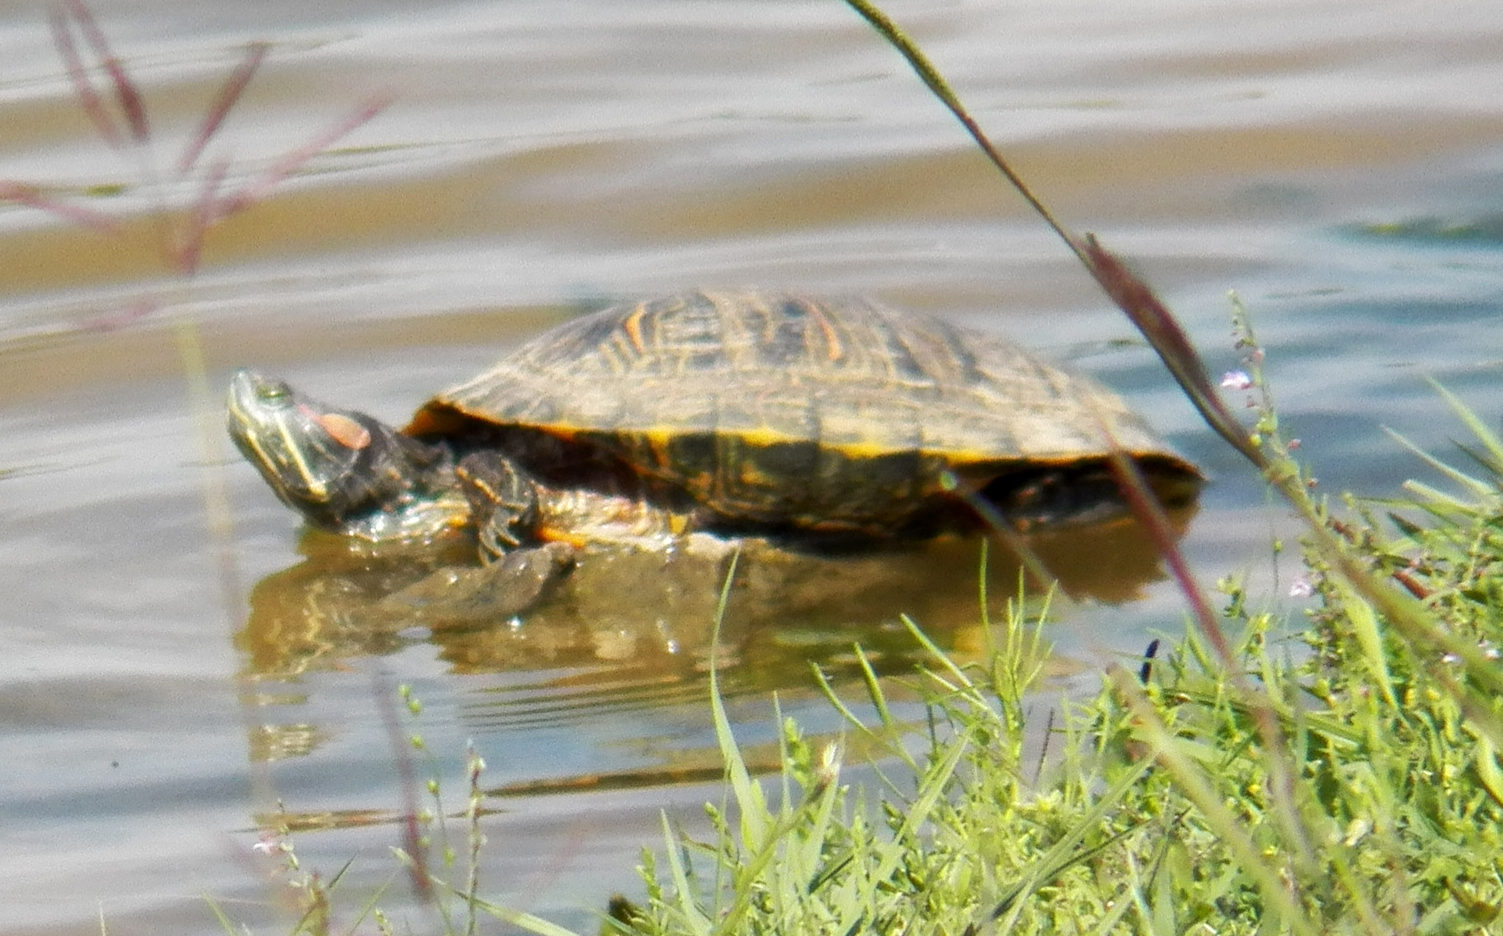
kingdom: Animalia
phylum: Chordata
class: Testudines
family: Emydidae
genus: Trachemys
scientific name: Trachemys scripta
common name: Slider
